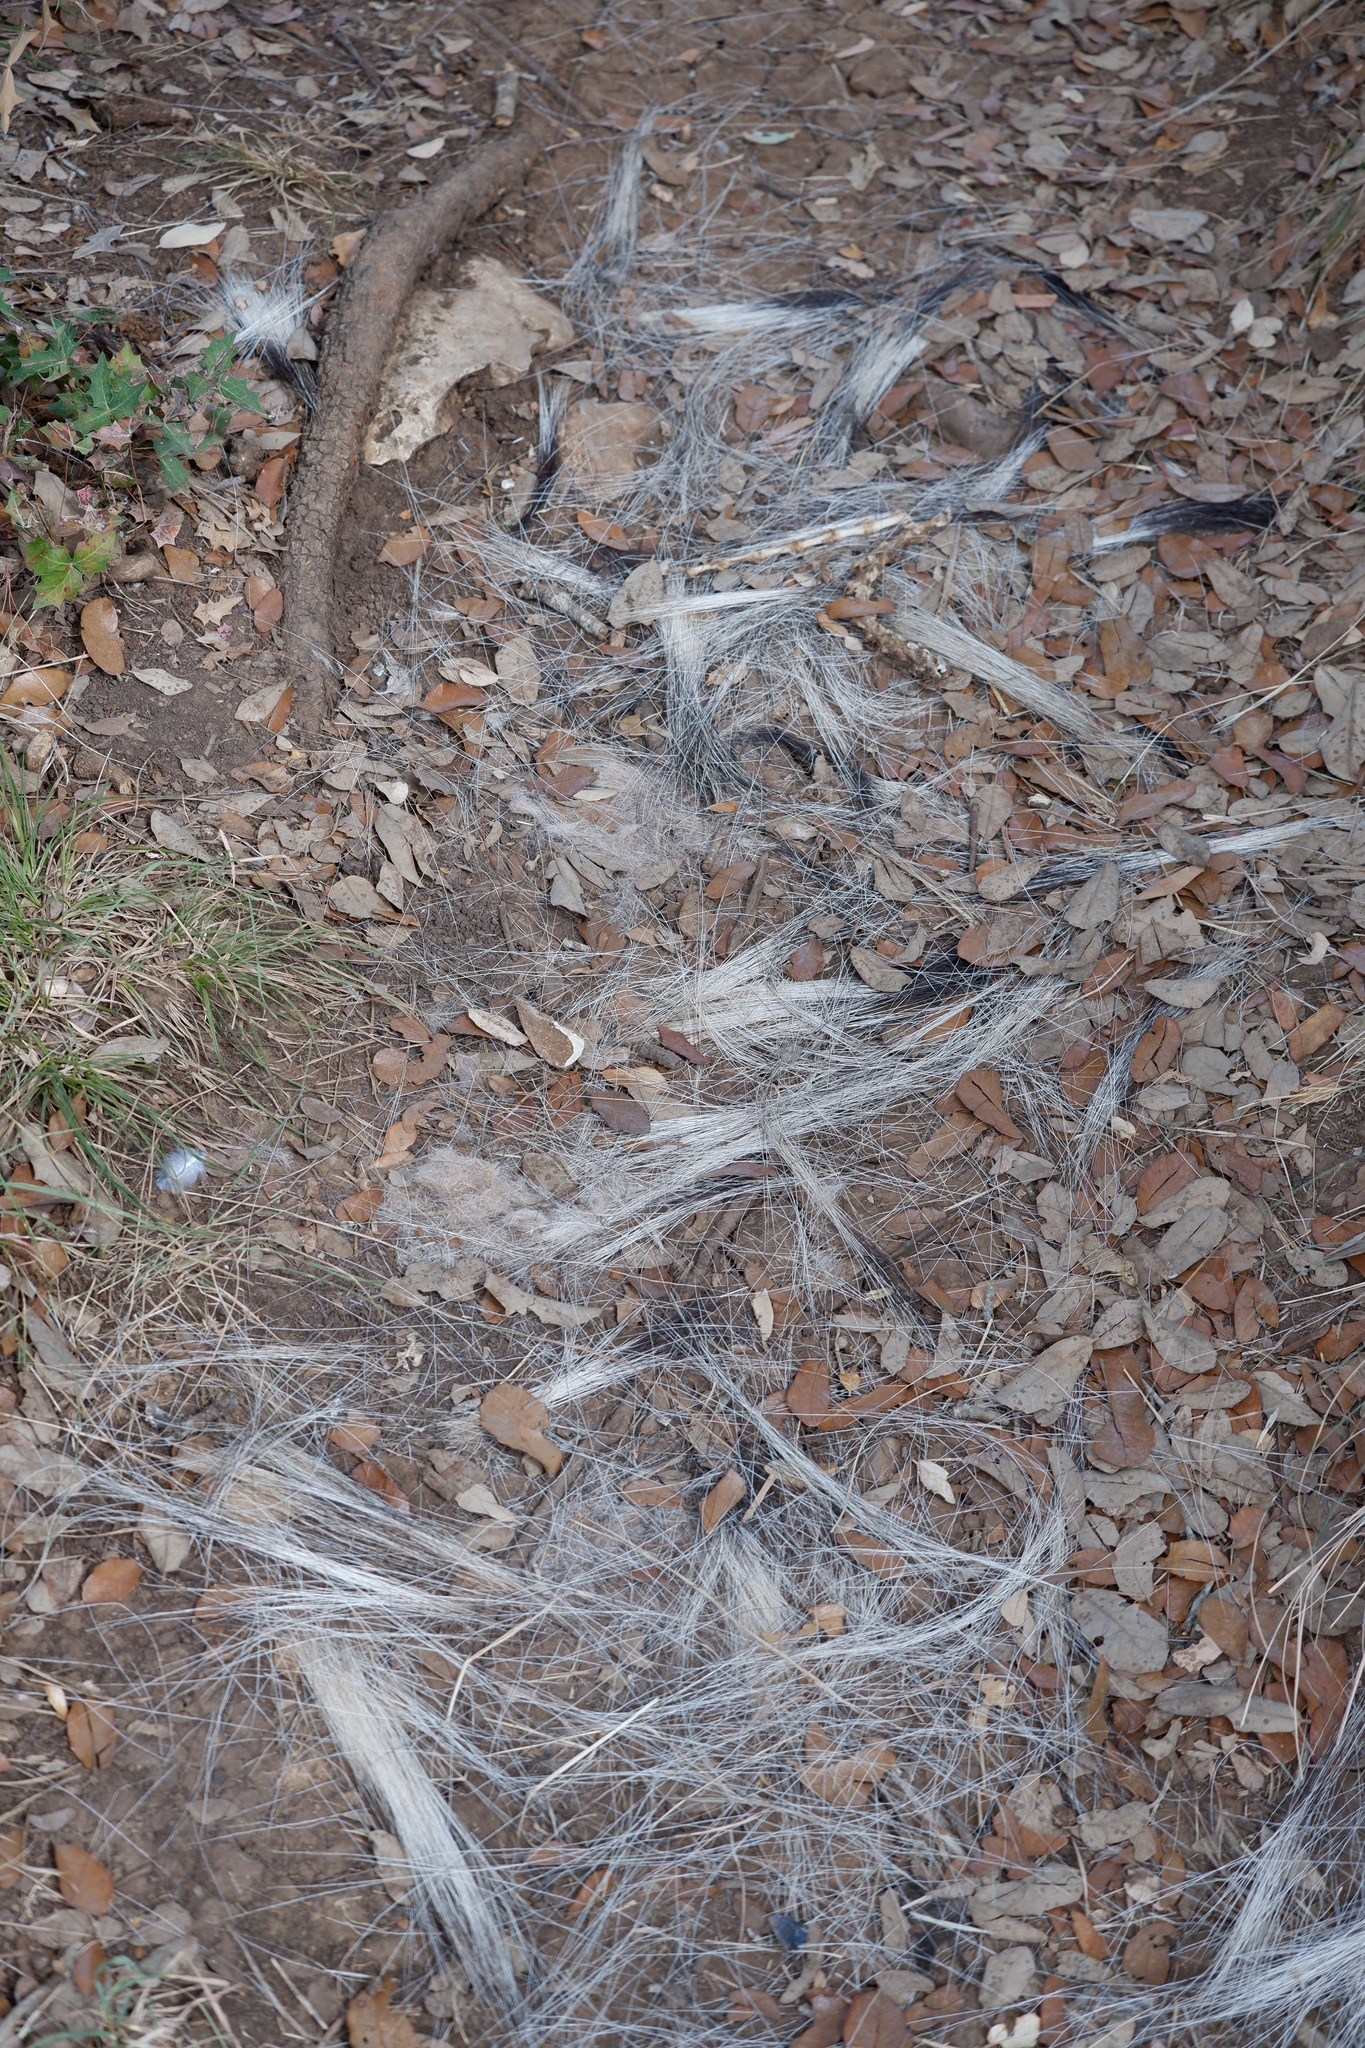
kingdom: Animalia
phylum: Chordata
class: Mammalia
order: Didelphimorphia
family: Didelphidae
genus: Didelphis
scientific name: Didelphis virginiana
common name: Virginia opossum
